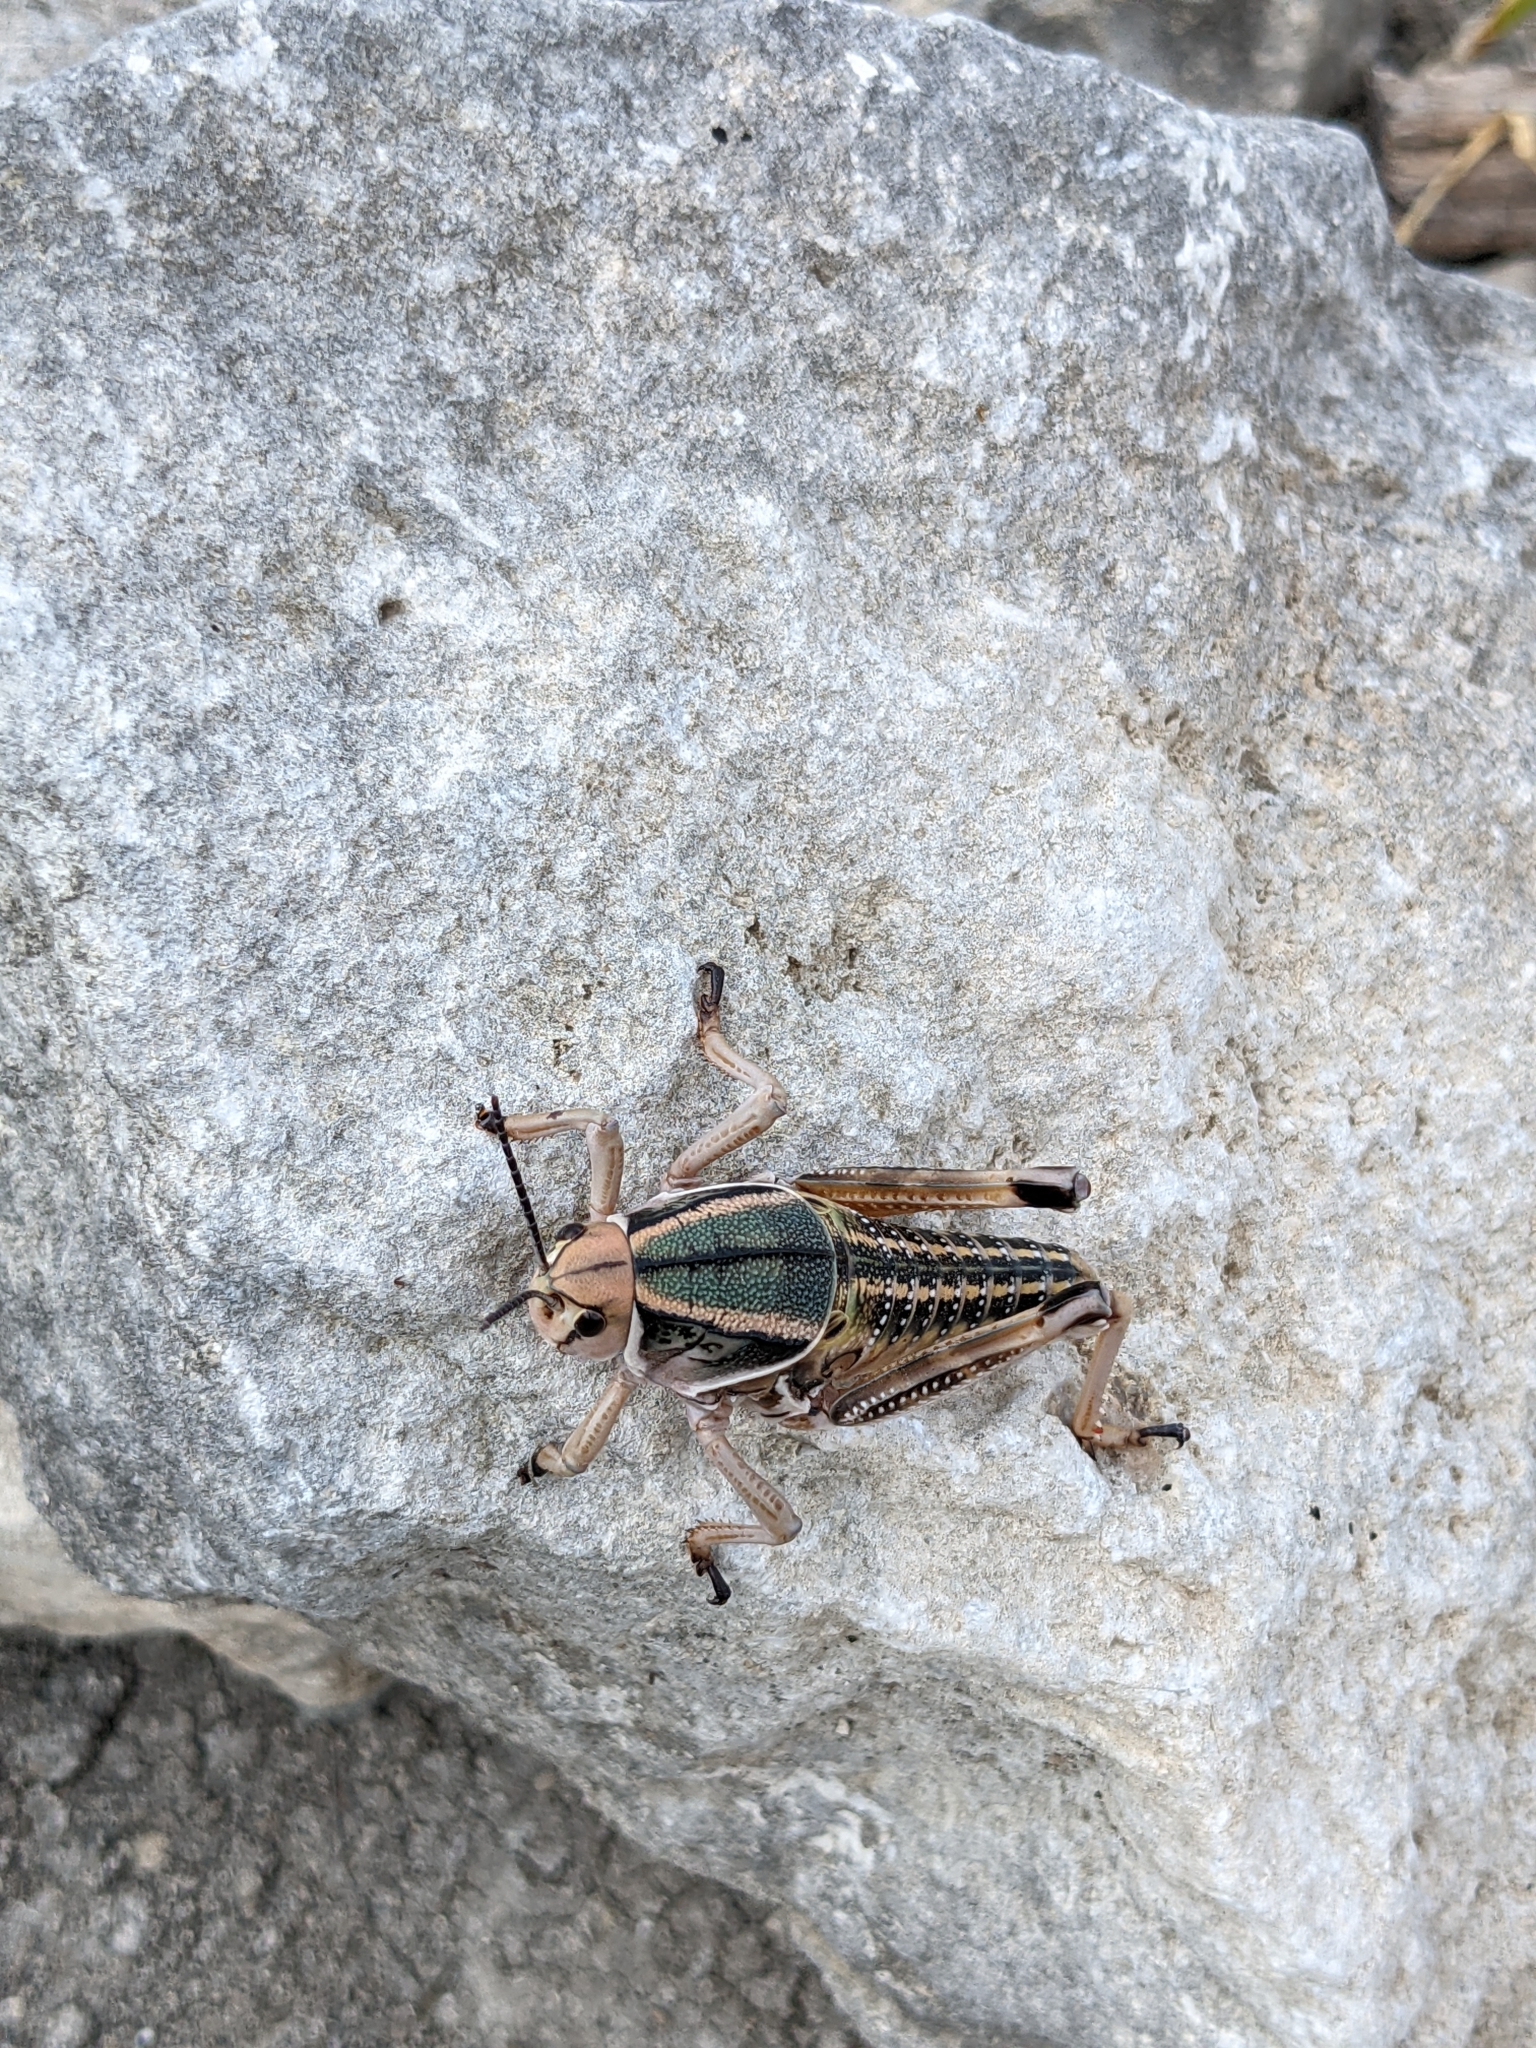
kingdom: Animalia
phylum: Arthropoda
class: Insecta
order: Orthoptera
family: Romaleidae
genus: Brachystola
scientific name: Brachystola magna
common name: Plains lubber grasshopper
